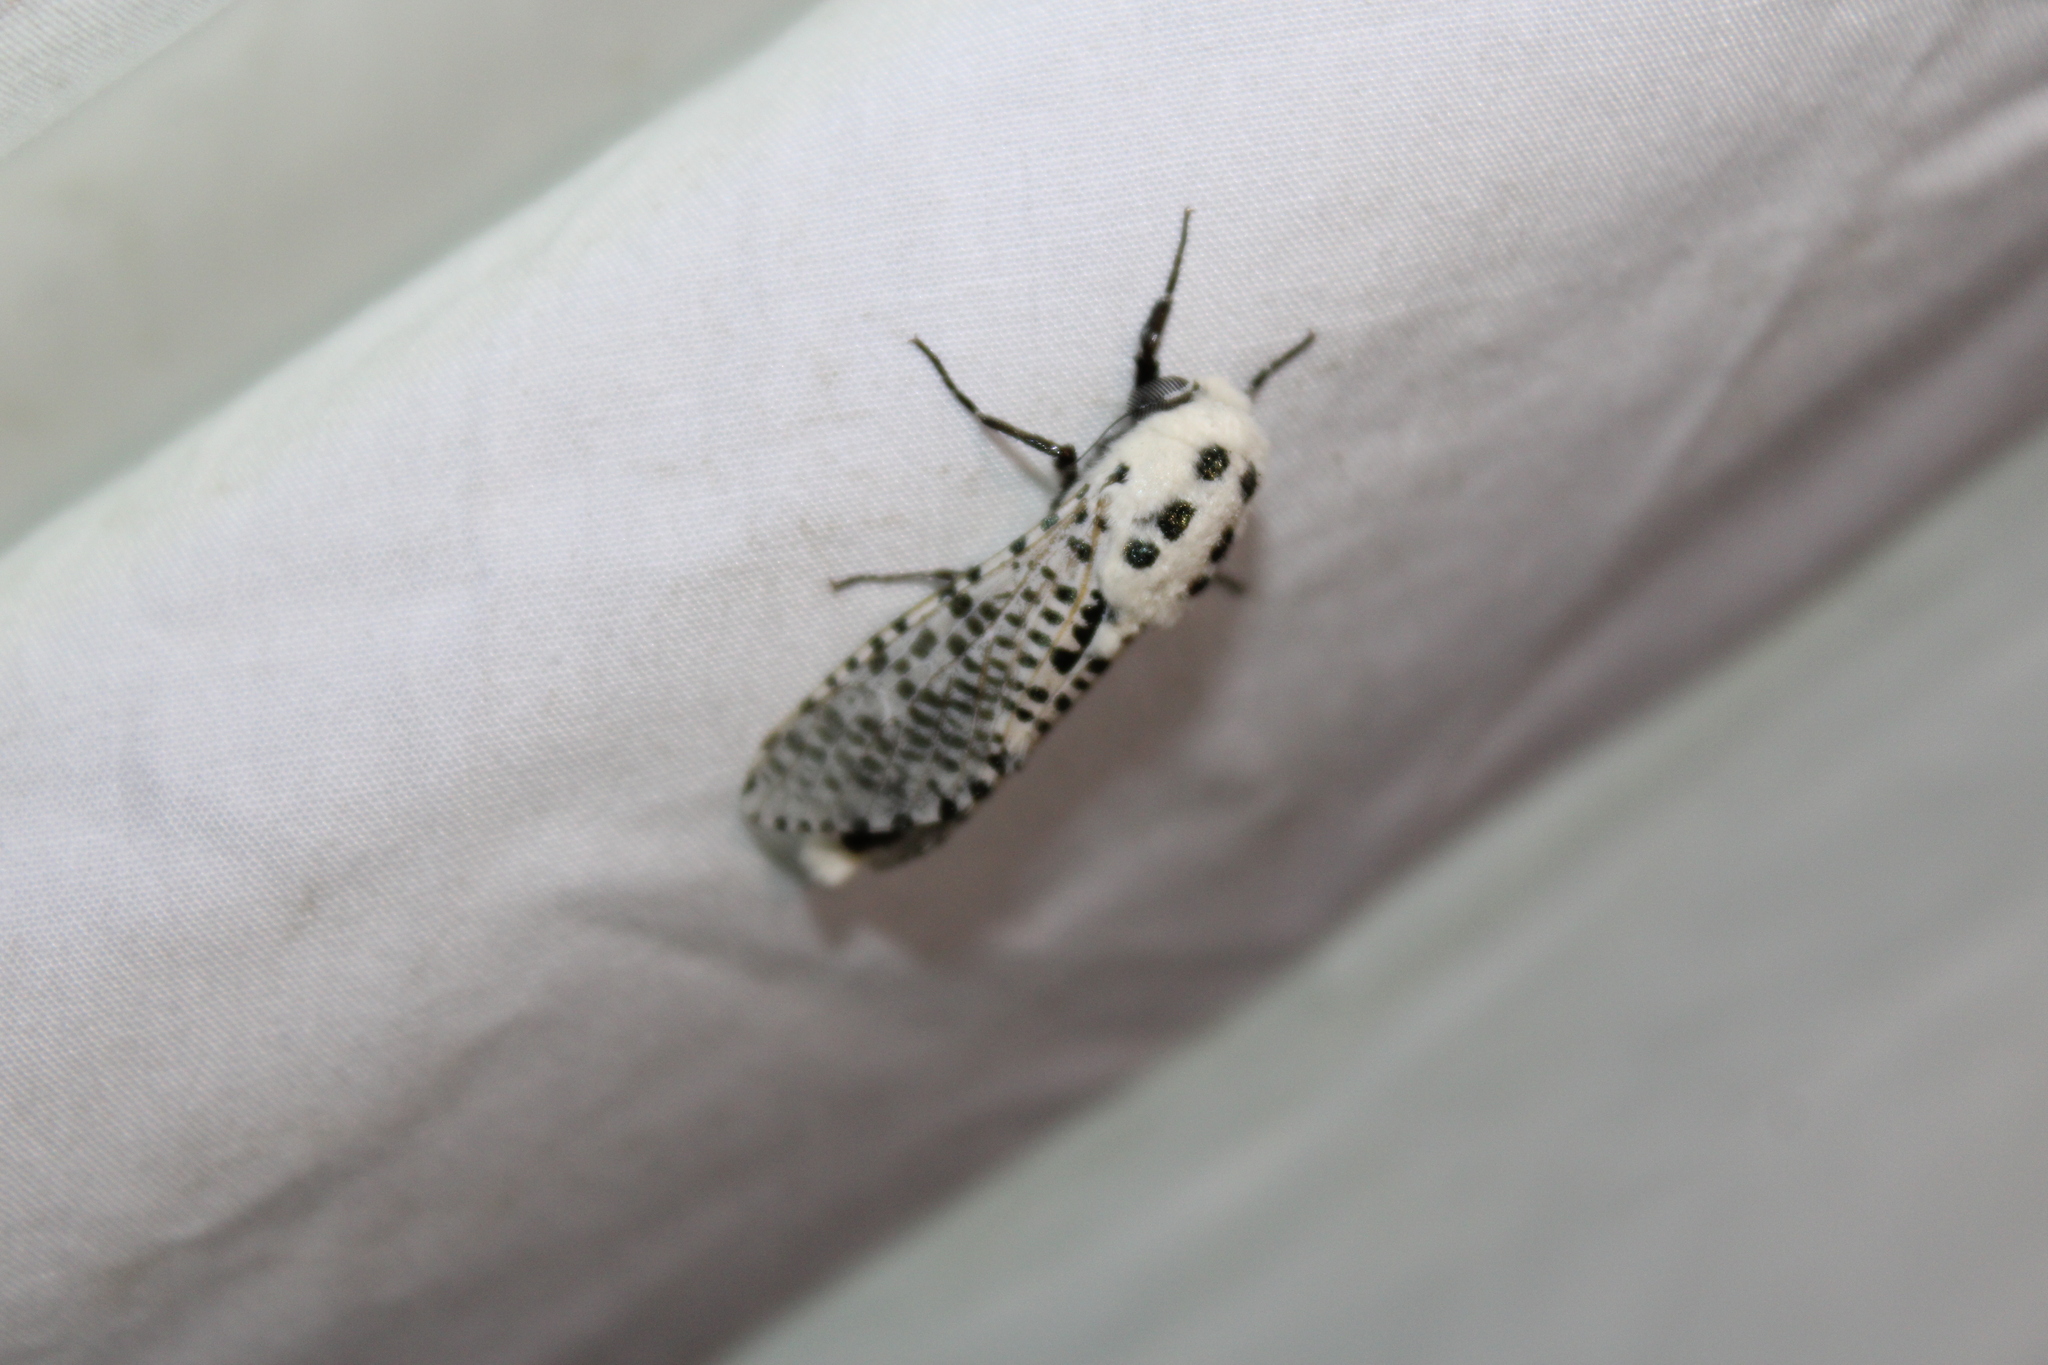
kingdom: Animalia
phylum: Arthropoda
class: Insecta
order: Lepidoptera
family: Cossidae
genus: Zeuzera
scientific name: Zeuzera pyrina
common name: Leopard moth
